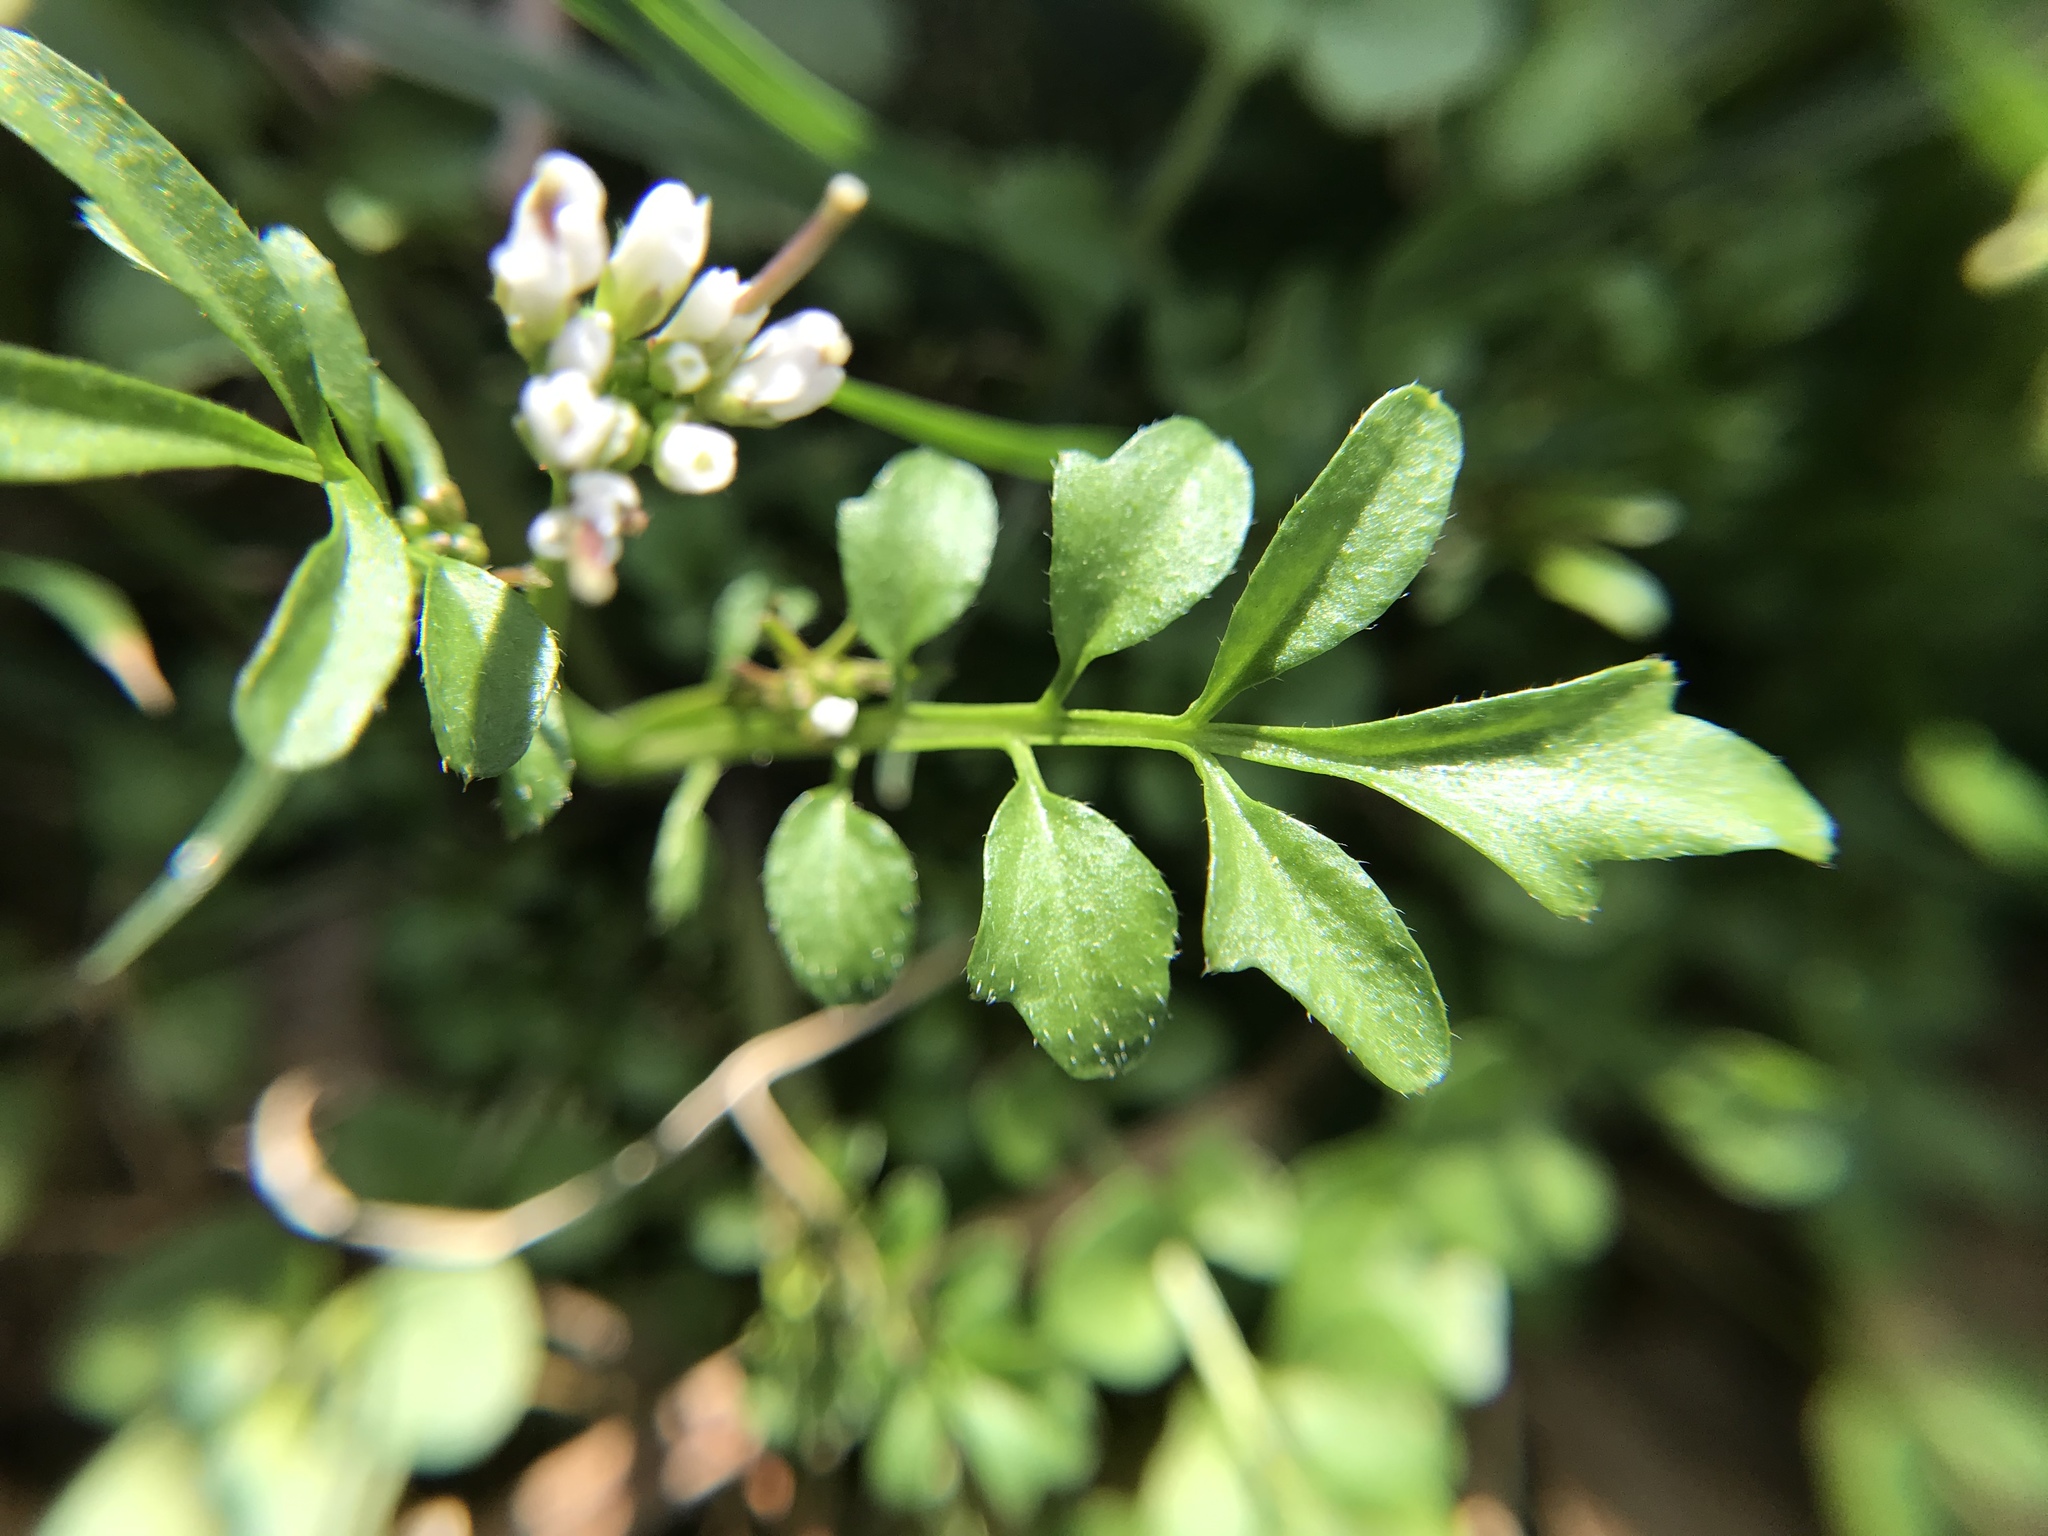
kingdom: Plantae
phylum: Tracheophyta
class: Magnoliopsida
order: Brassicales
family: Brassicaceae
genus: Cardamine
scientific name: Cardamine hirsuta
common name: Hairy bittercress
